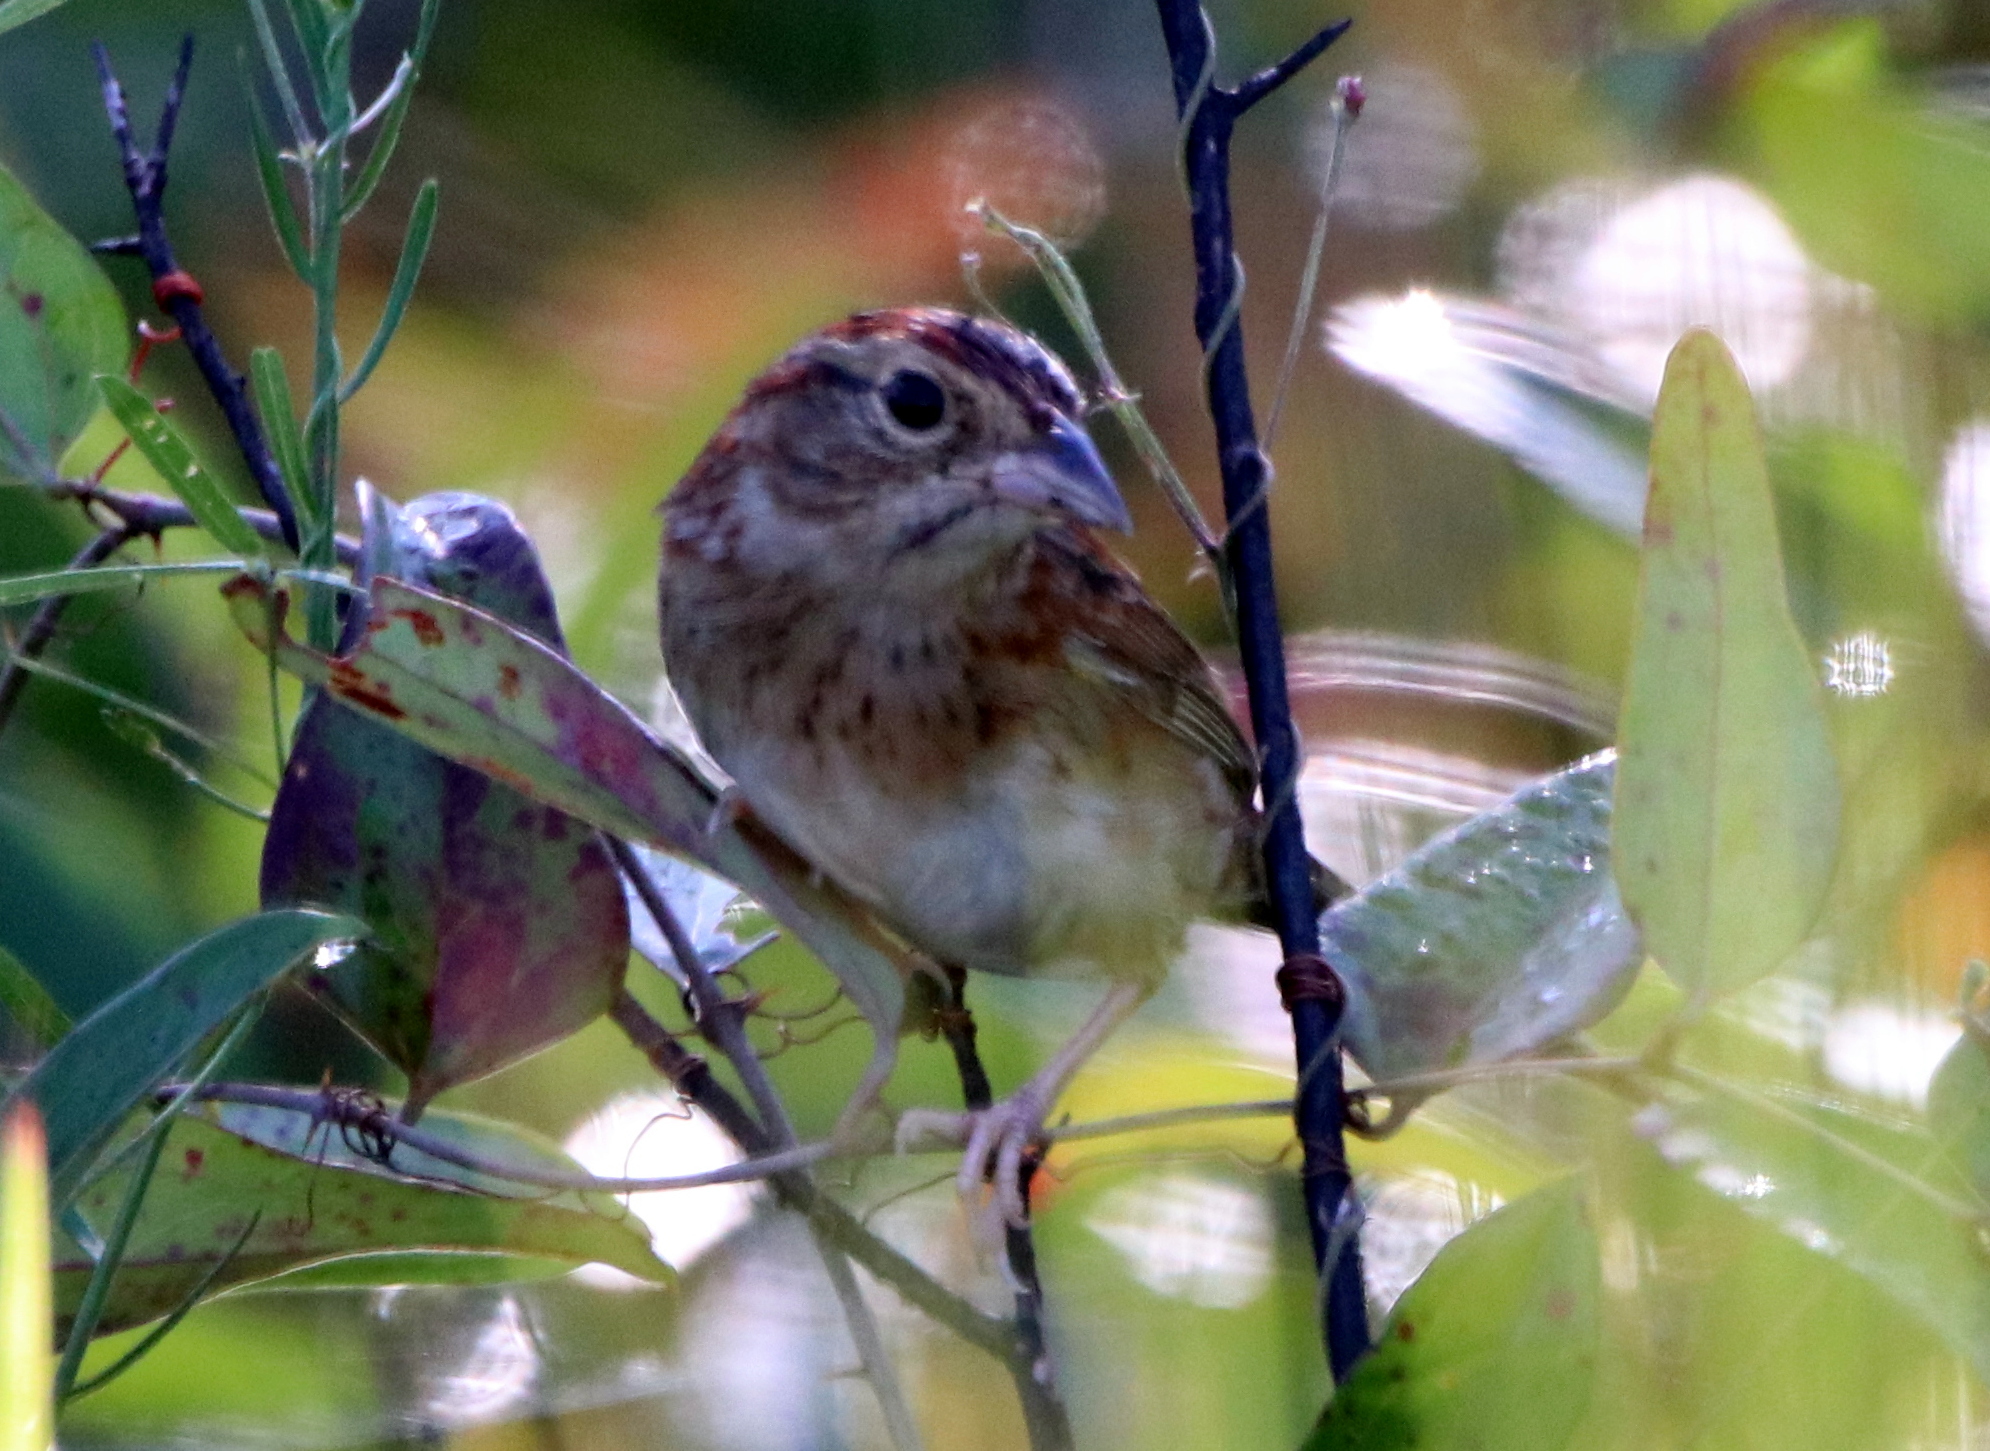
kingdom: Animalia
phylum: Chordata
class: Aves
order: Passeriformes
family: Passerellidae
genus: Peucaea
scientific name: Peucaea aestivalis
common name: Bachman's sparrow
